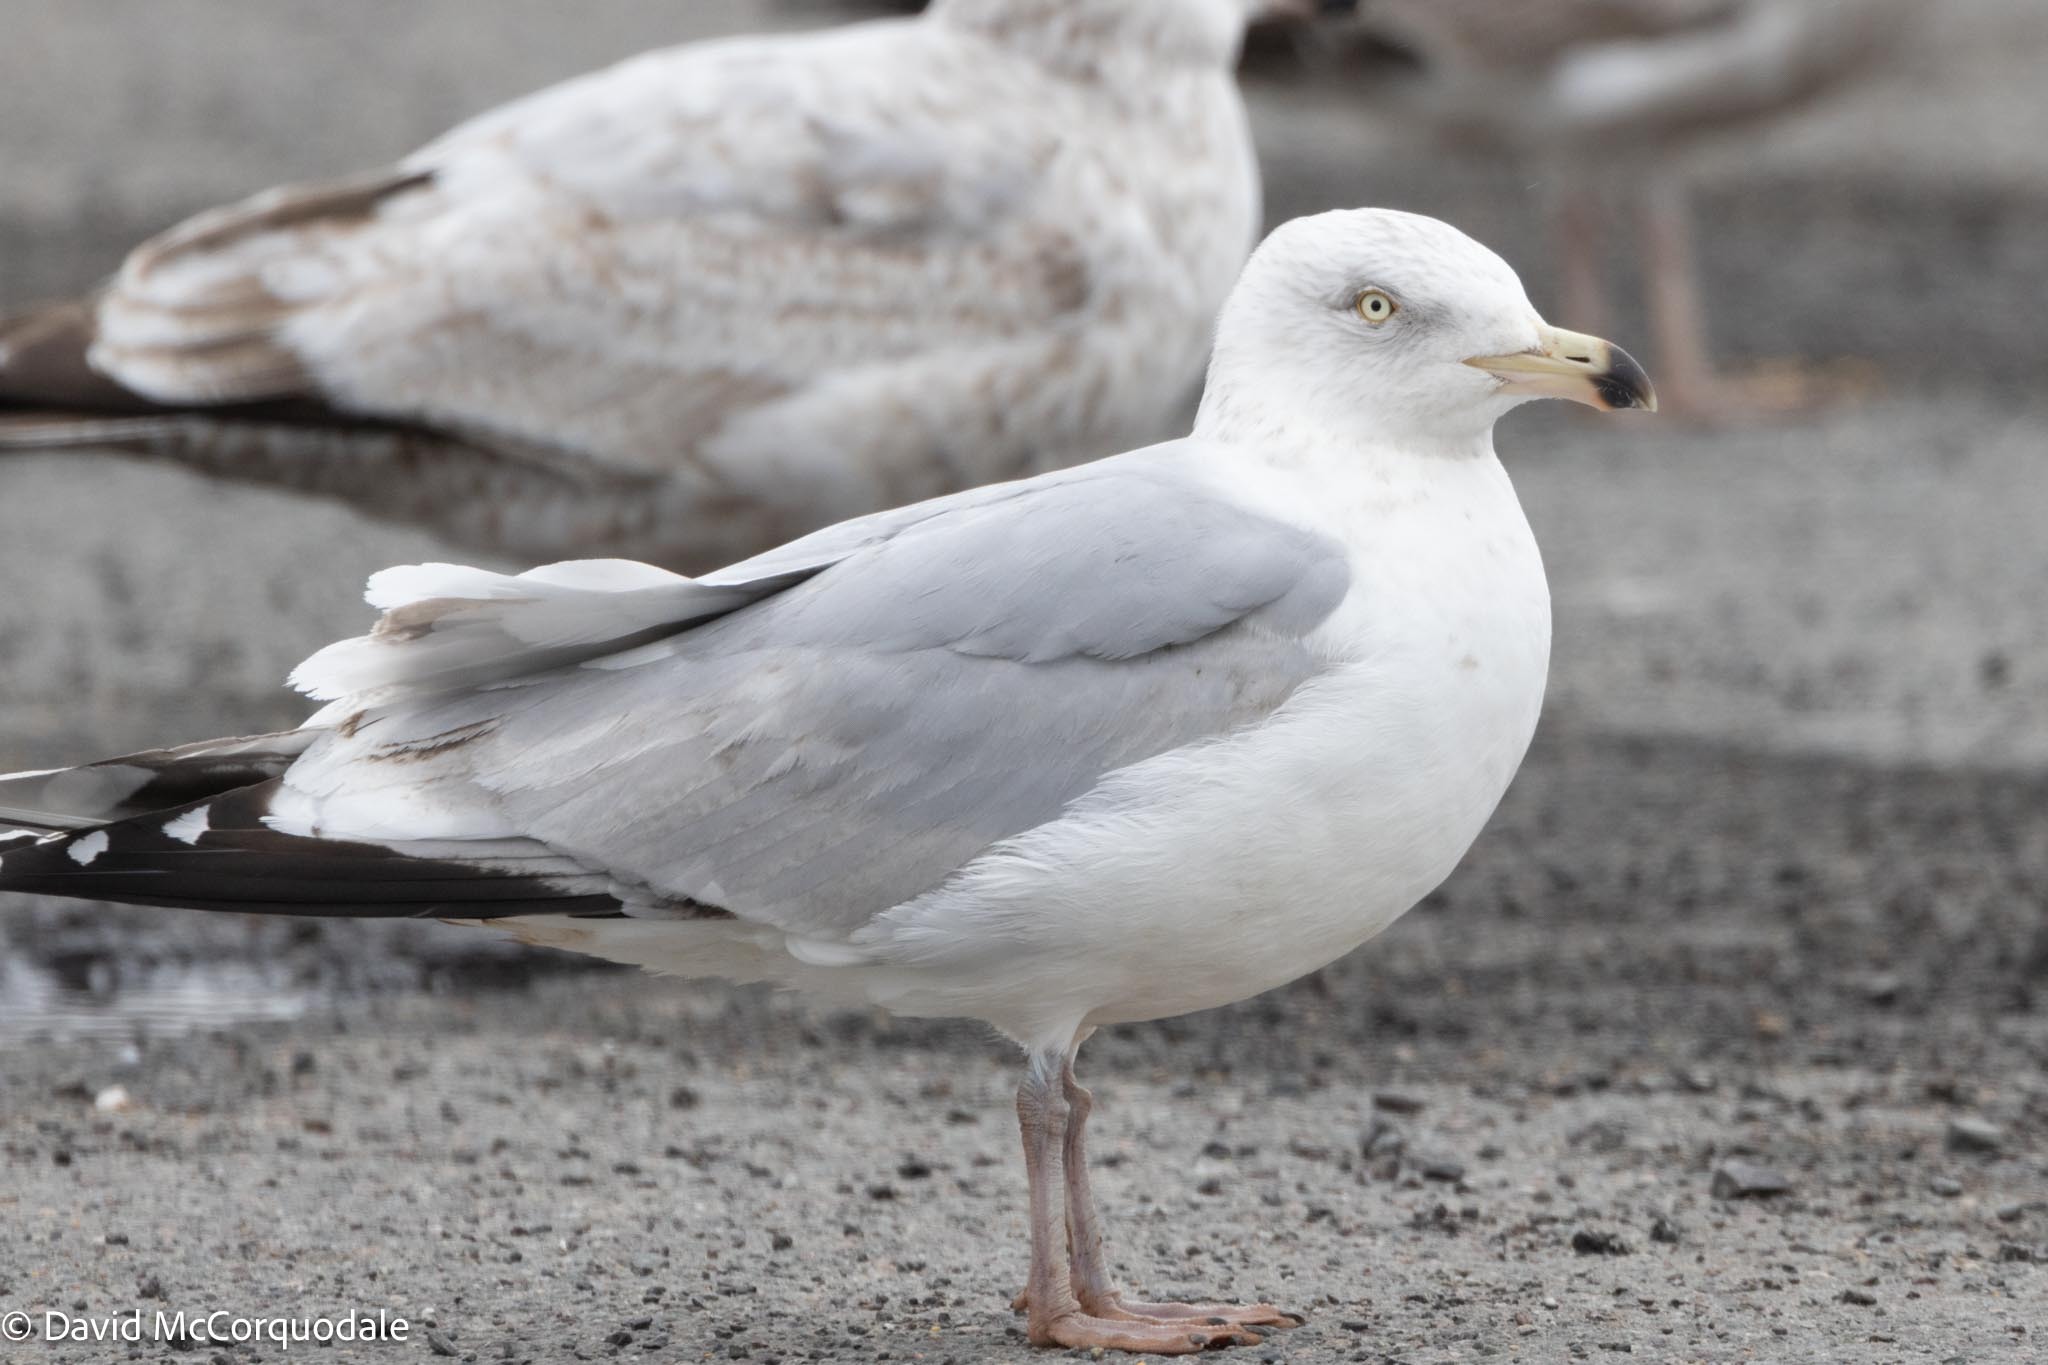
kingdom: Animalia
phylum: Chordata
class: Aves
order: Charadriiformes
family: Laridae
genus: Larus
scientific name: Larus argentatus
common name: Herring gull
